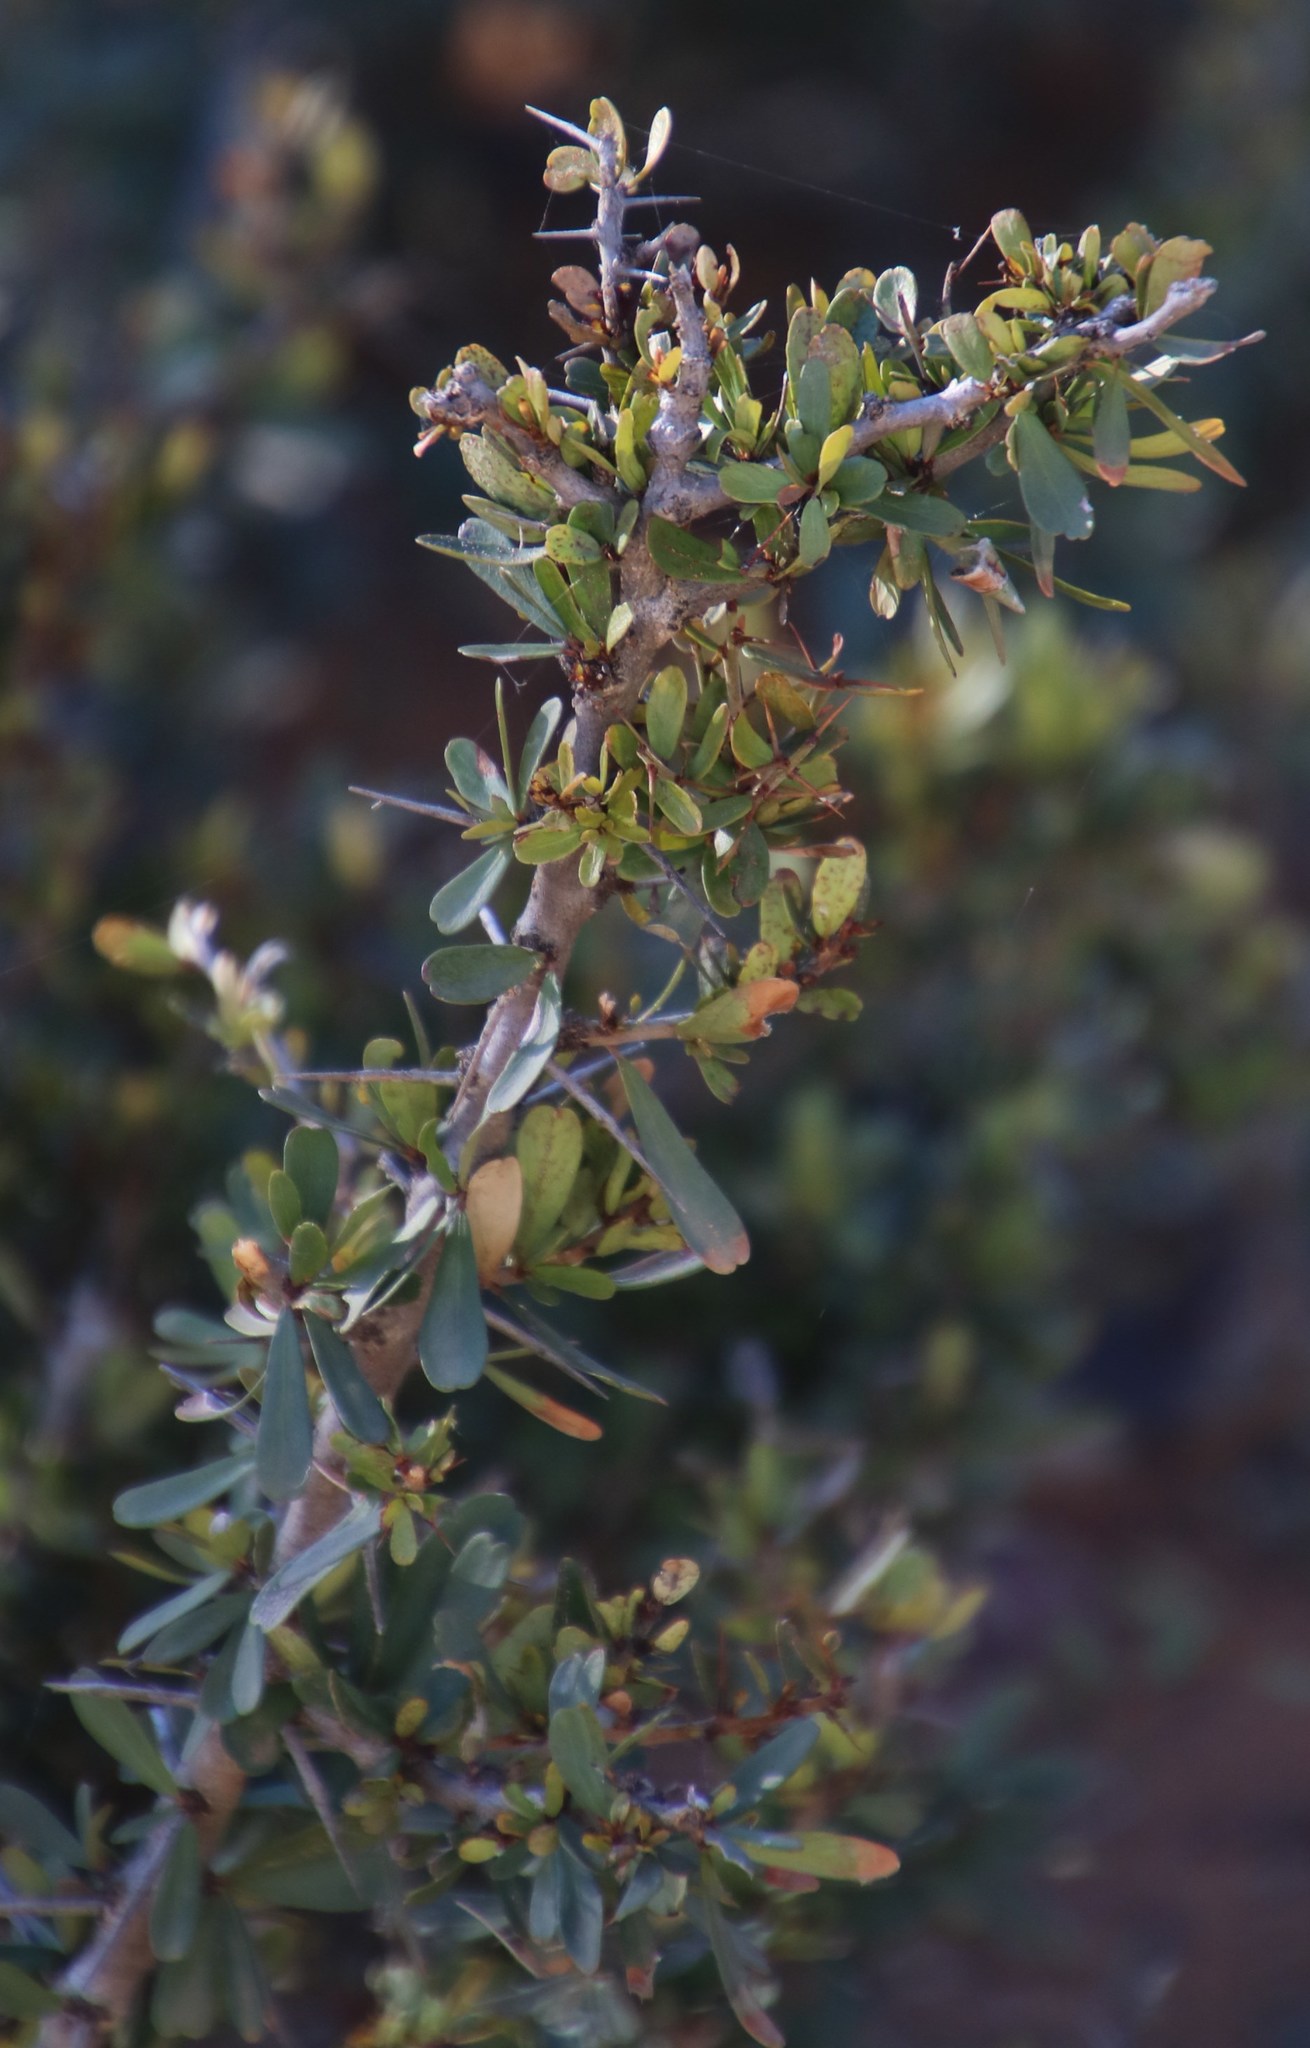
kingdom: Plantae
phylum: Tracheophyta
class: Magnoliopsida
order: Celastrales
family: Celastraceae
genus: Gymnosporia
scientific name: Gymnosporia polyacantha
